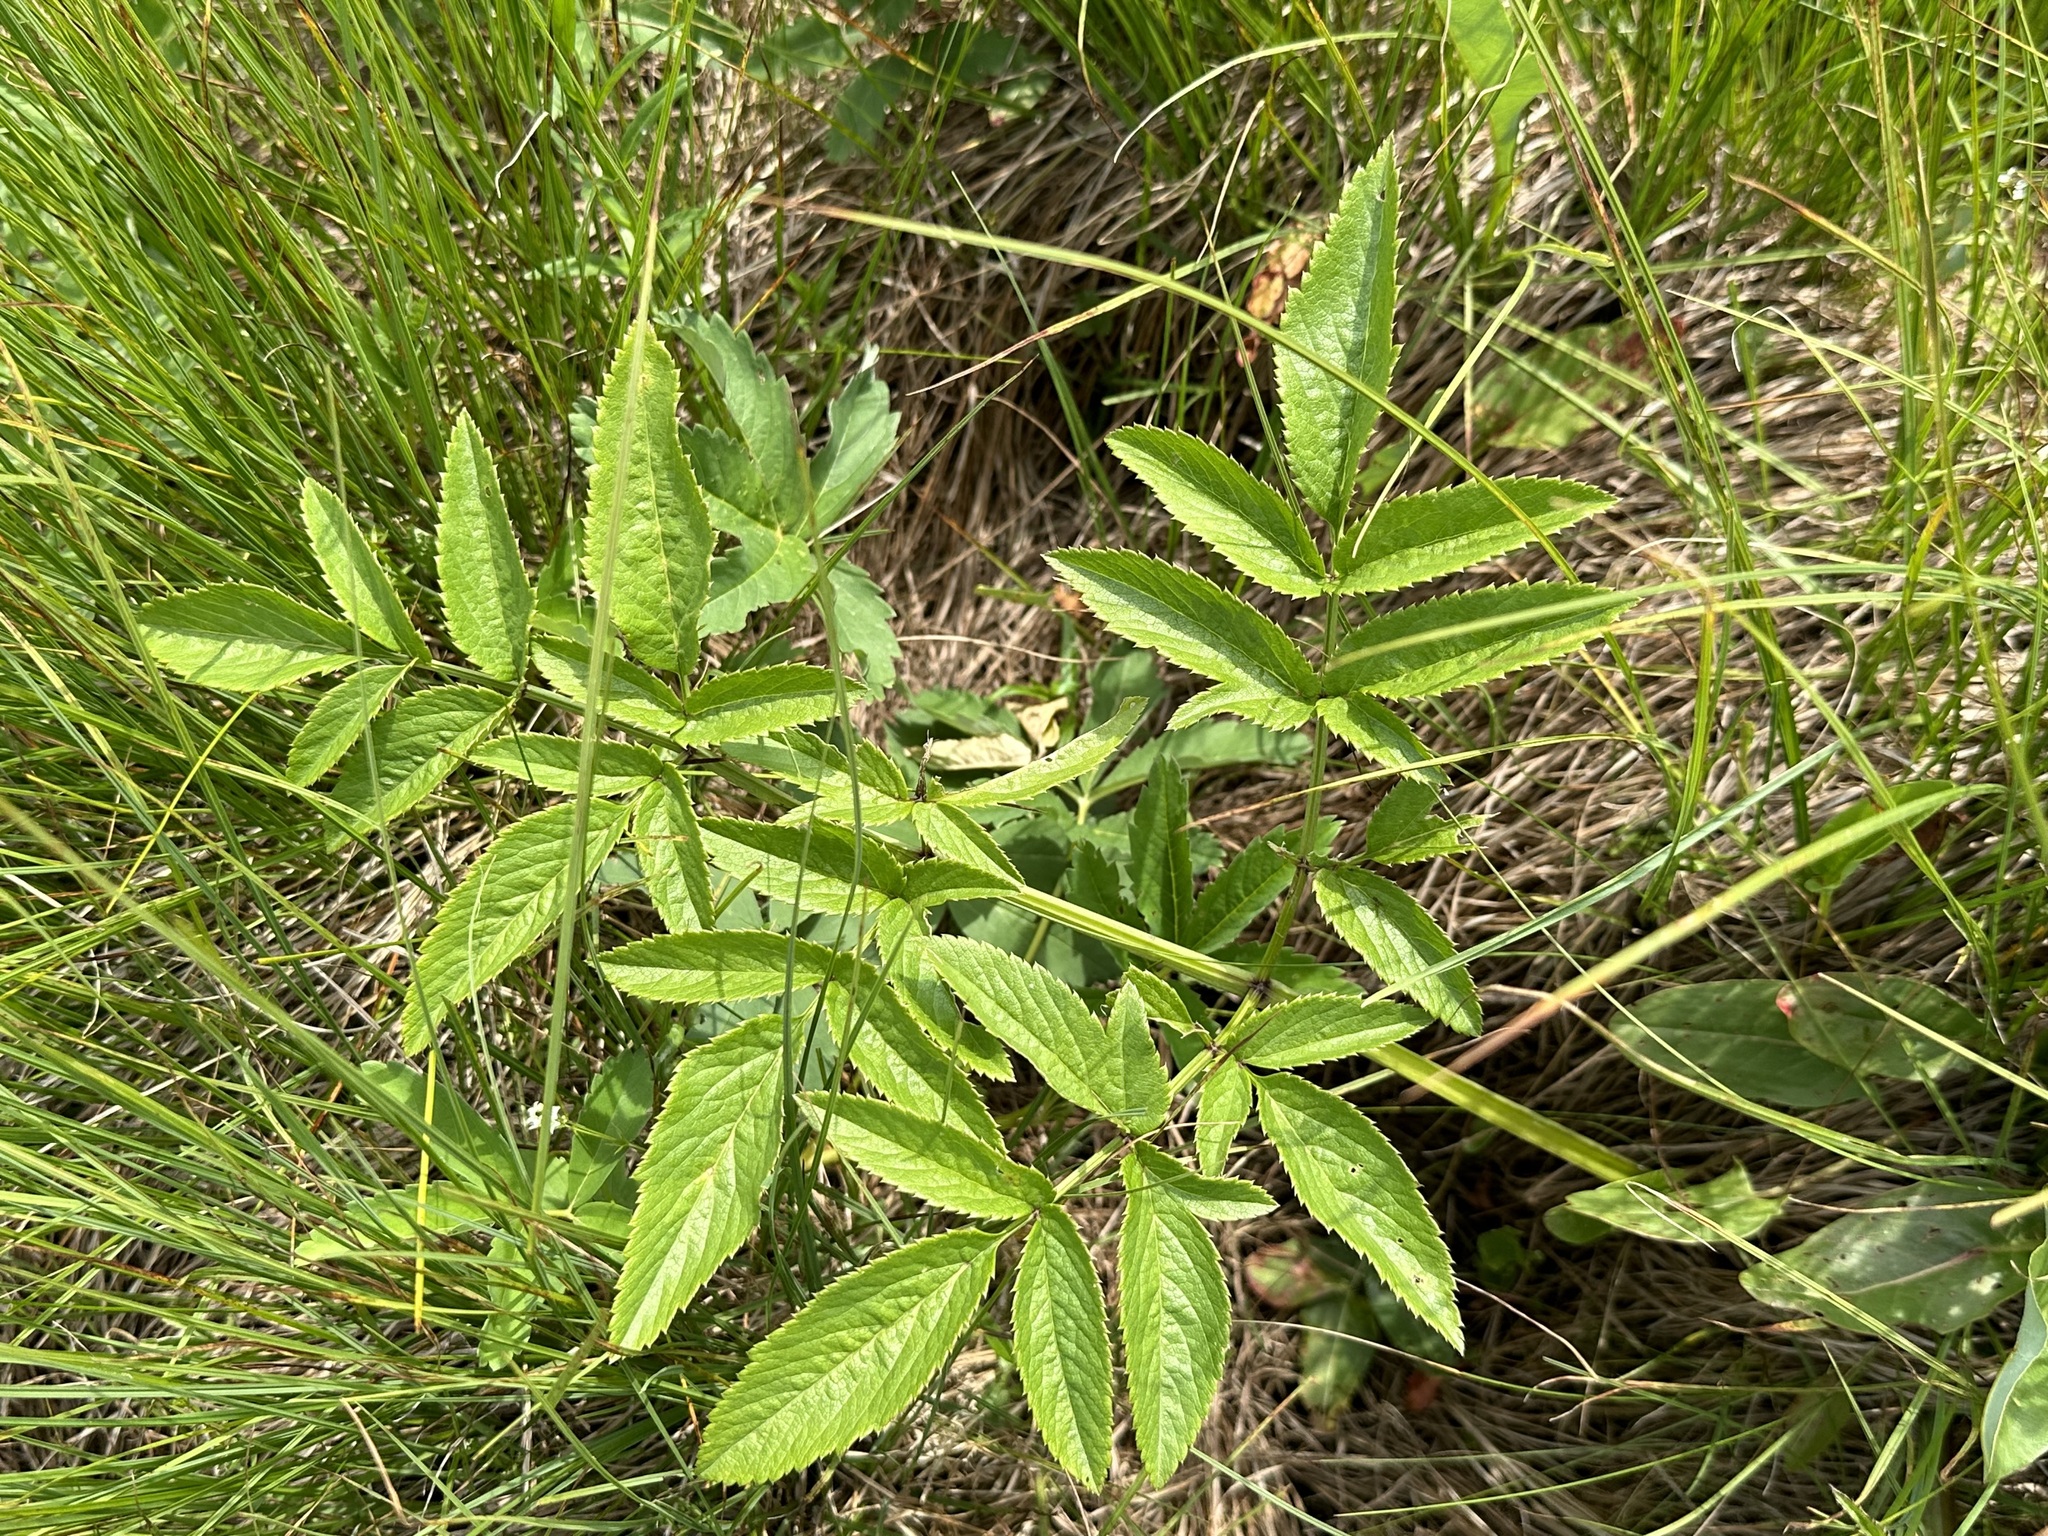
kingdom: Plantae
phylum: Tracheophyta
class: Magnoliopsida
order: Apiales
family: Apiaceae
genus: Angelica
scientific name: Angelica sylvestris
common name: Wild angelica
